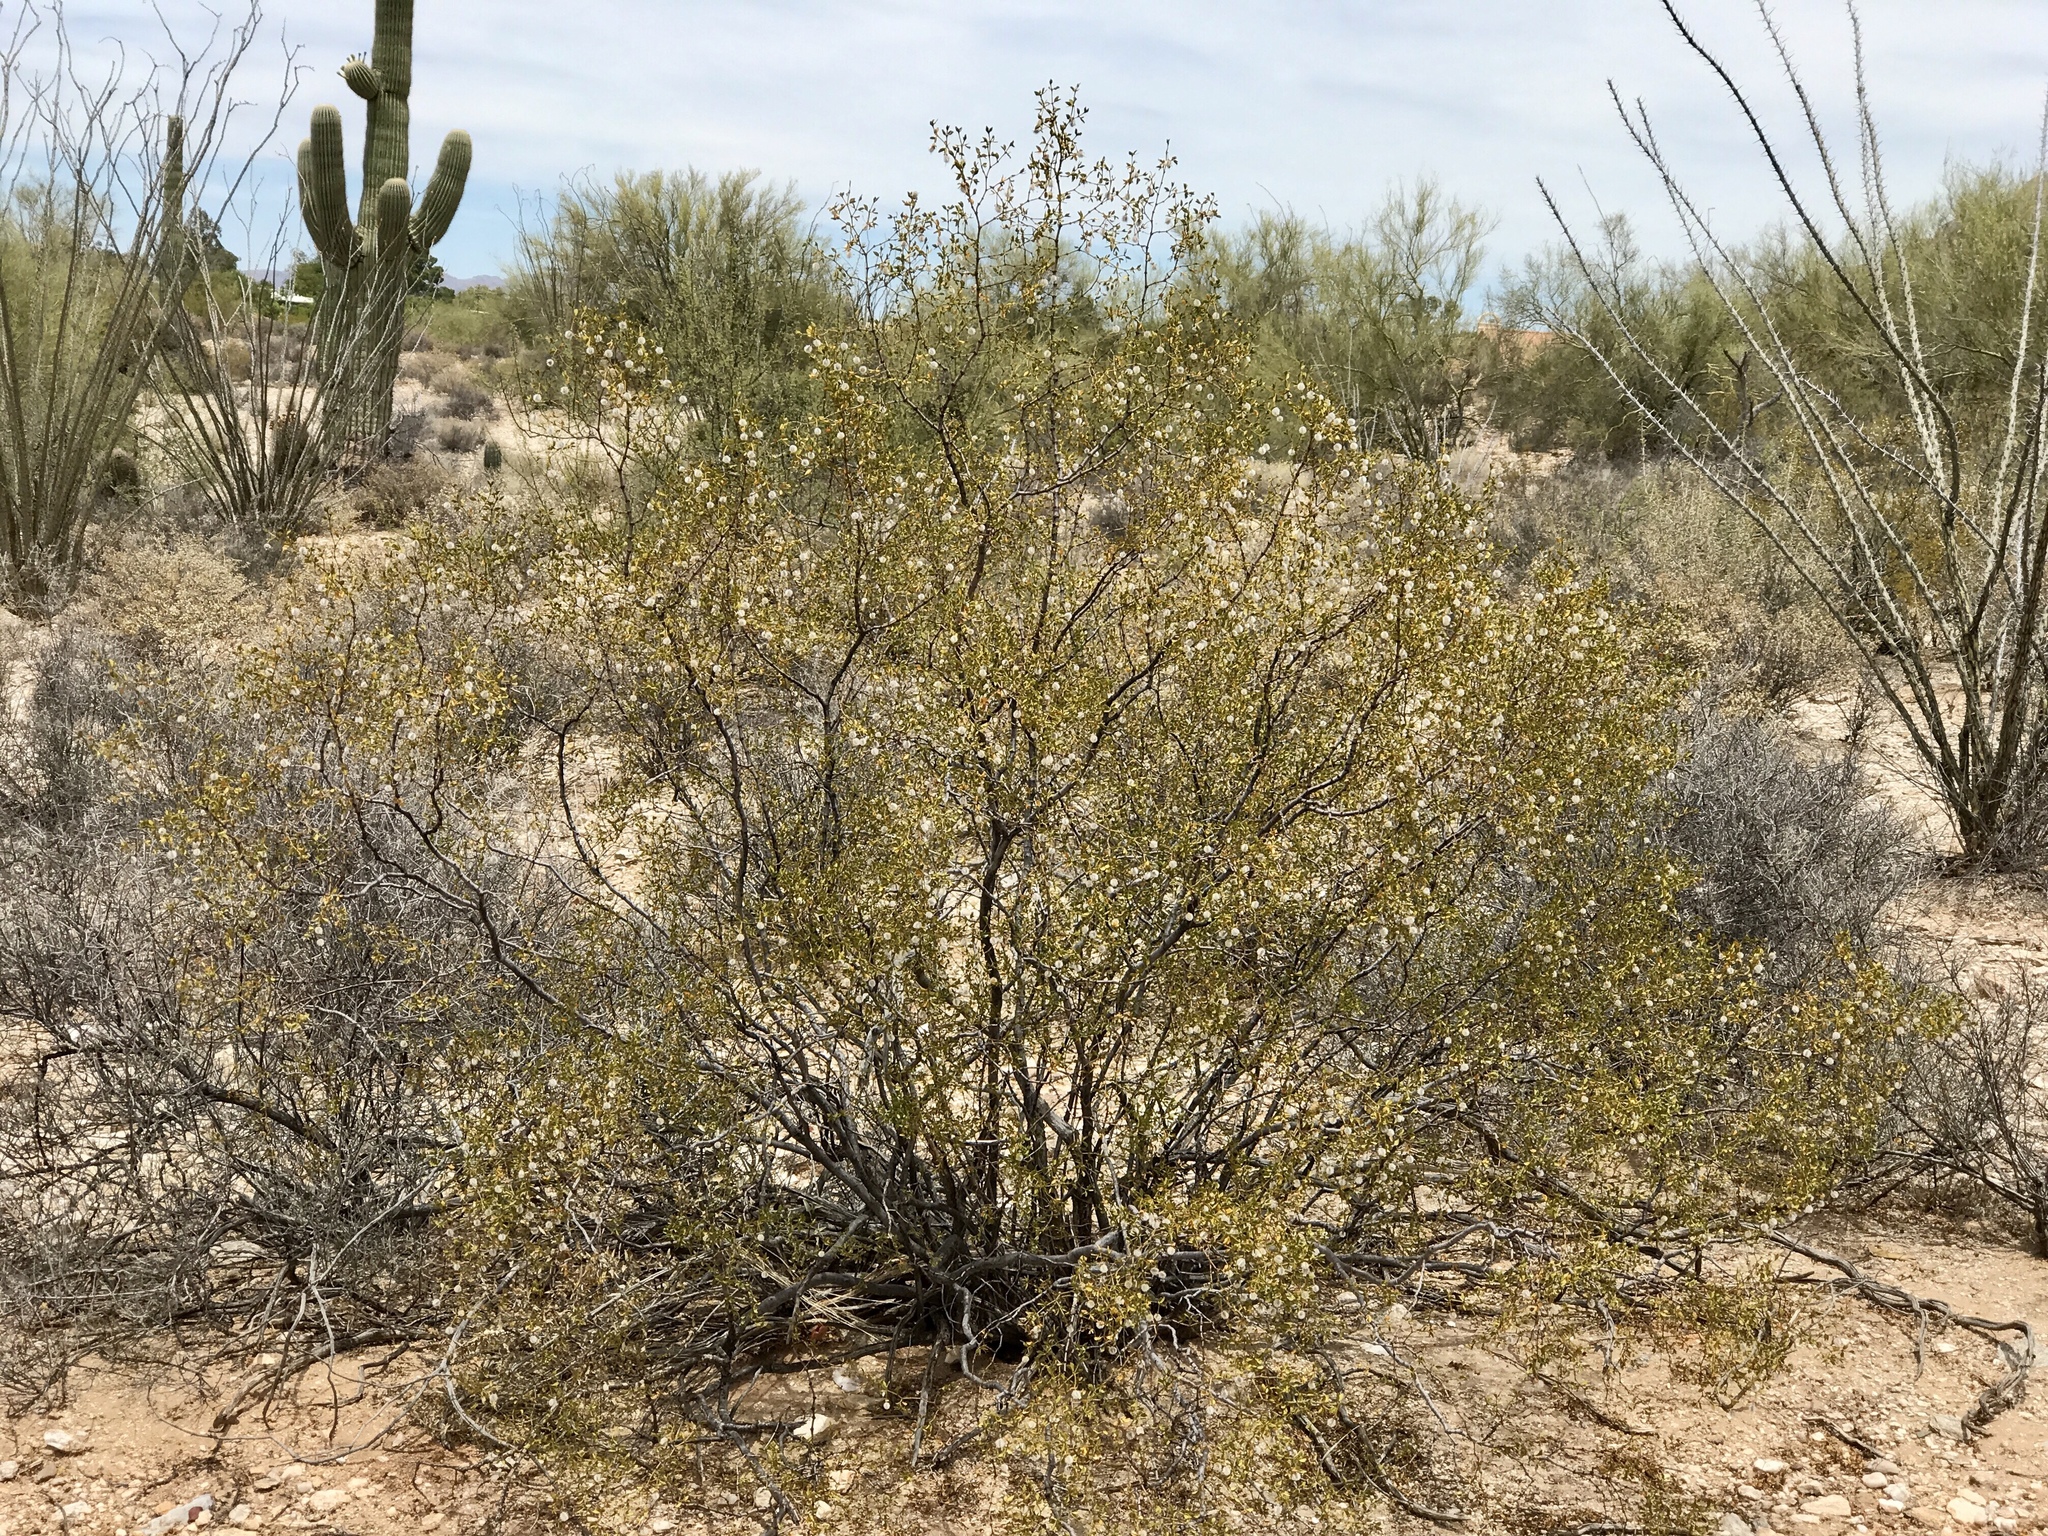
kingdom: Plantae
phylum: Tracheophyta
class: Magnoliopsida
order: Zygophyllales
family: Zygophyllaceae
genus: Larrea
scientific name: Larrea tridentata
